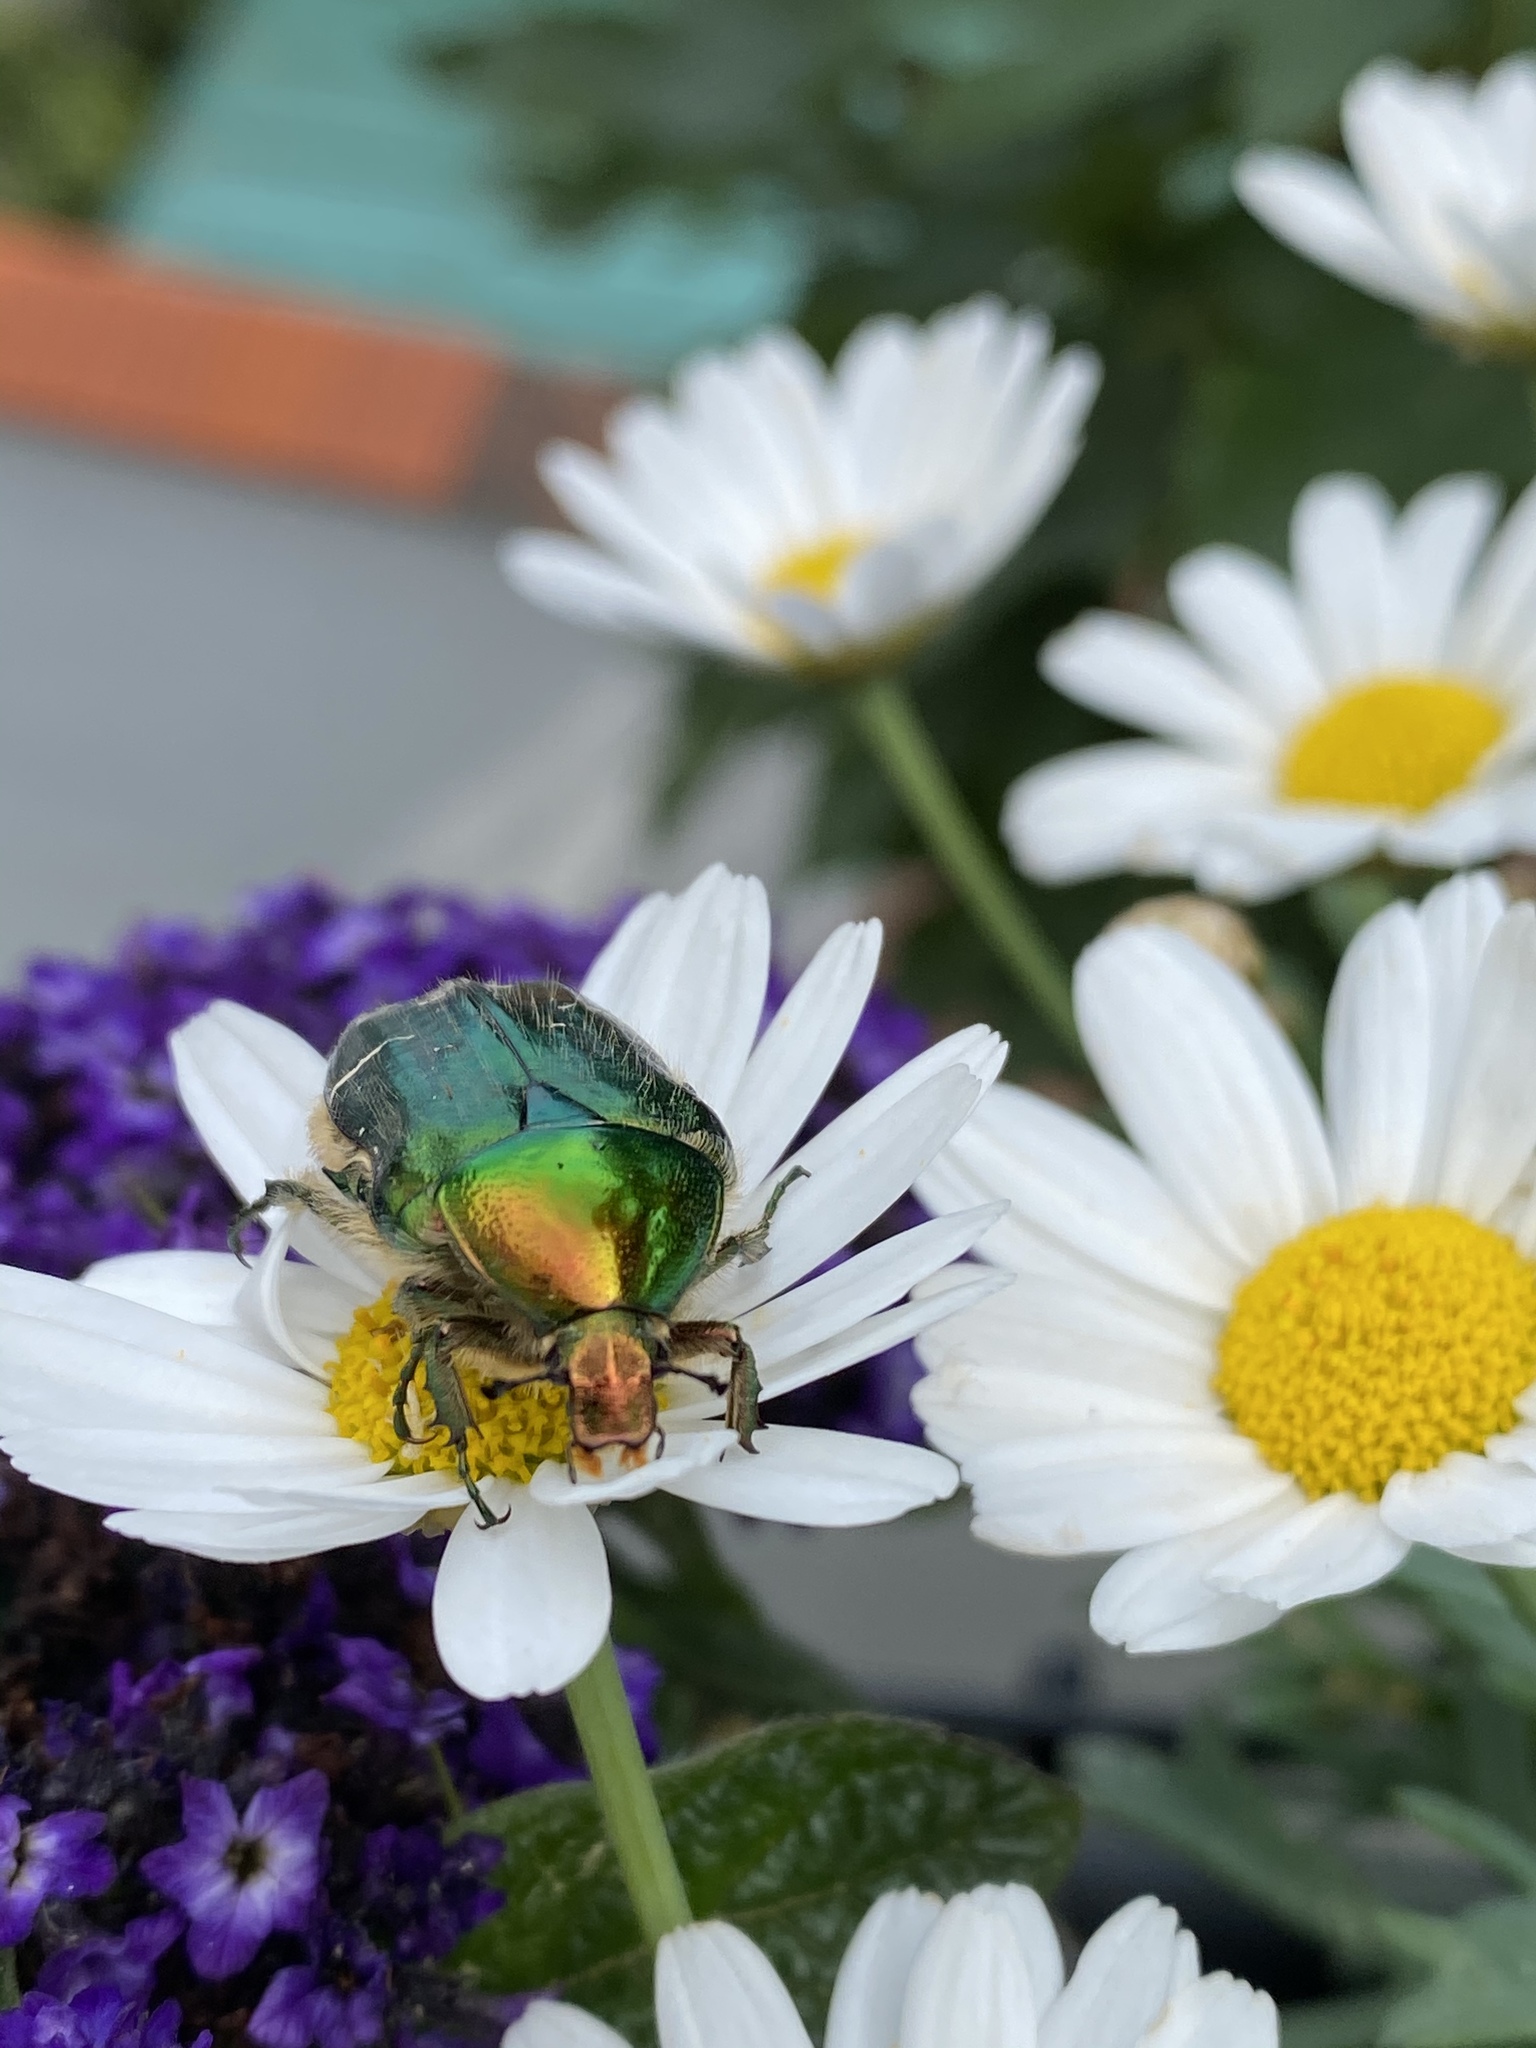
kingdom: Animalia
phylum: Arthropoda
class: Insecta
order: Coleoptera
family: Scarabaeidae
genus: Cetonia
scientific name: Cetonia aurata
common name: Rose chafer
